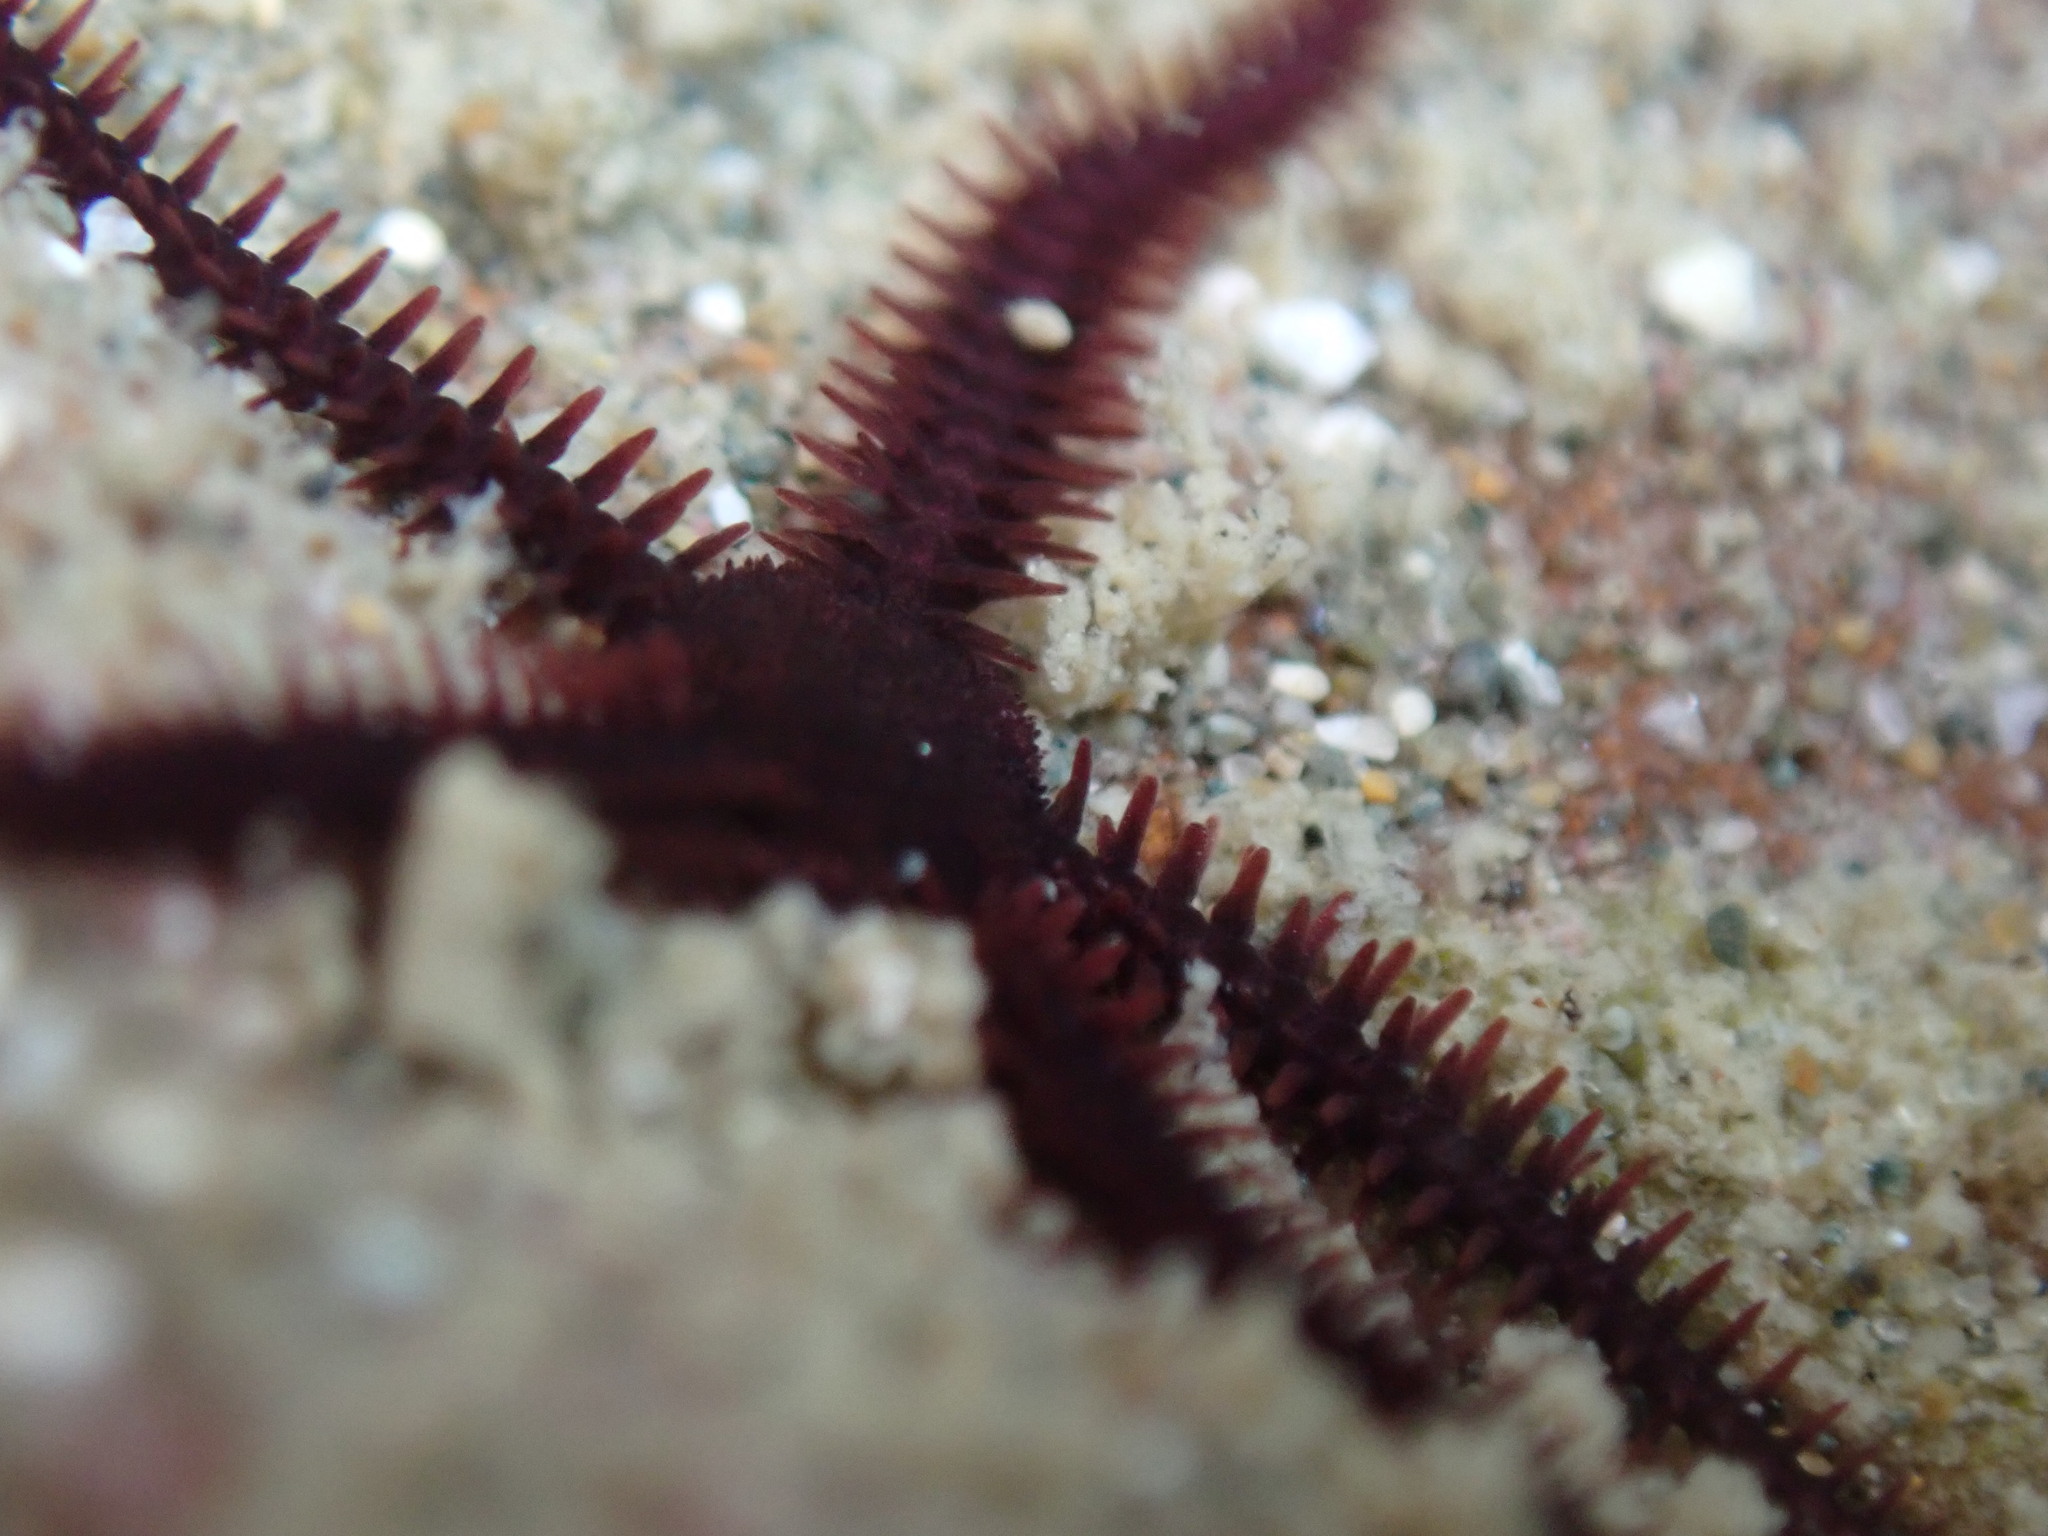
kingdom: Animalia
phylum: Echinodermata
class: Ophiuroidea
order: Ophiacanthida
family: Ophiopteridae
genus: Ophiopteris
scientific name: Ophiopteris antipodum
